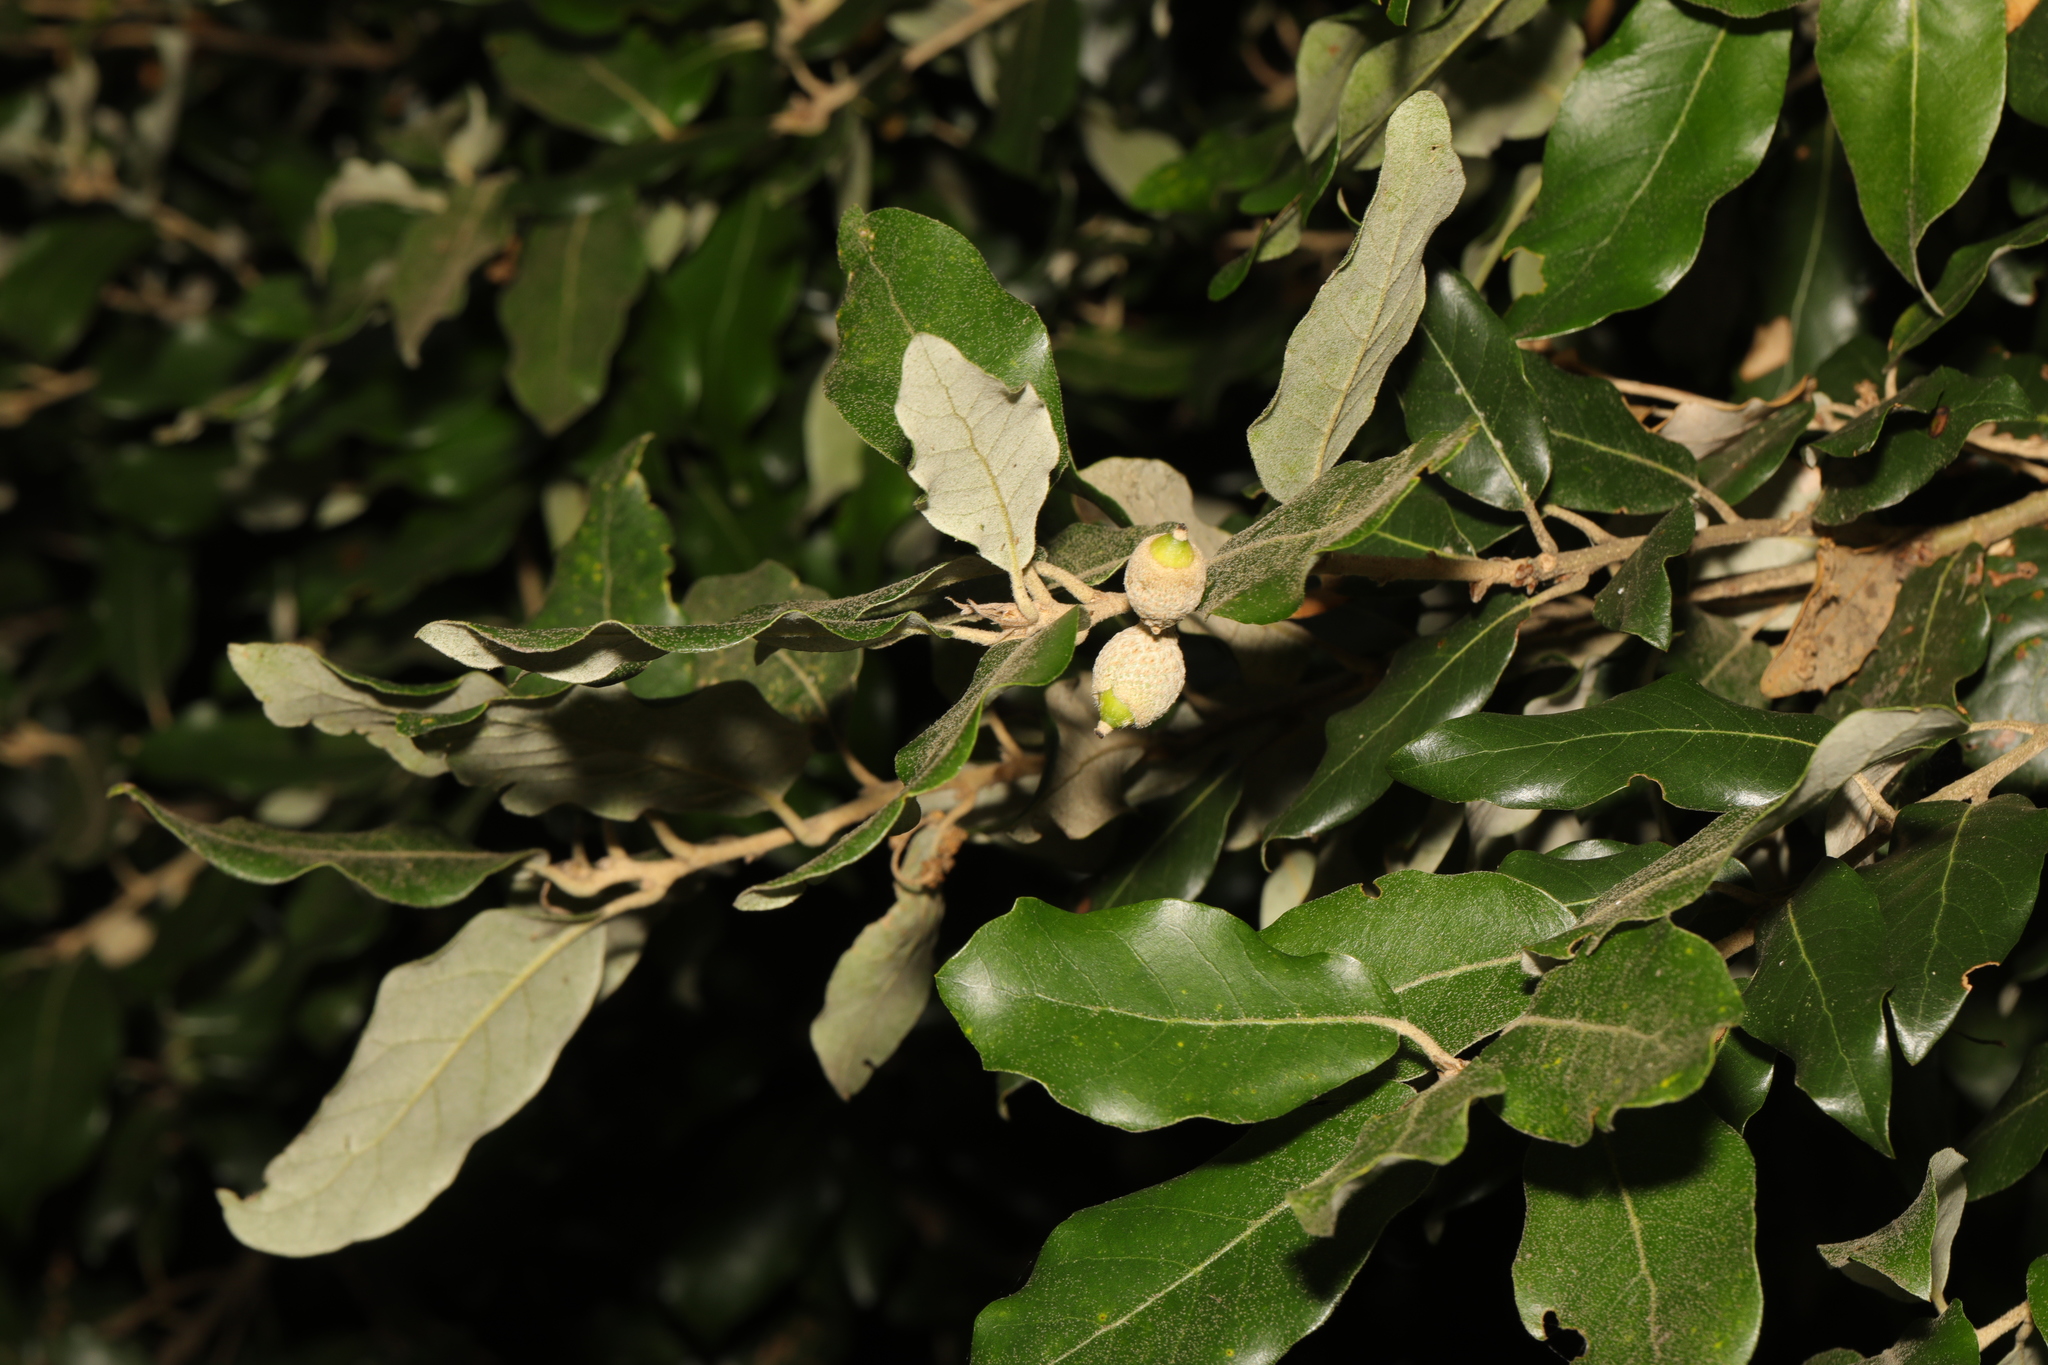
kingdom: Plantae
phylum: Tracheophyta
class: Magnoliopsida
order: Fagales
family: Fagaceae
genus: Quercus
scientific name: Quercus ilex
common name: Evergreen oak
